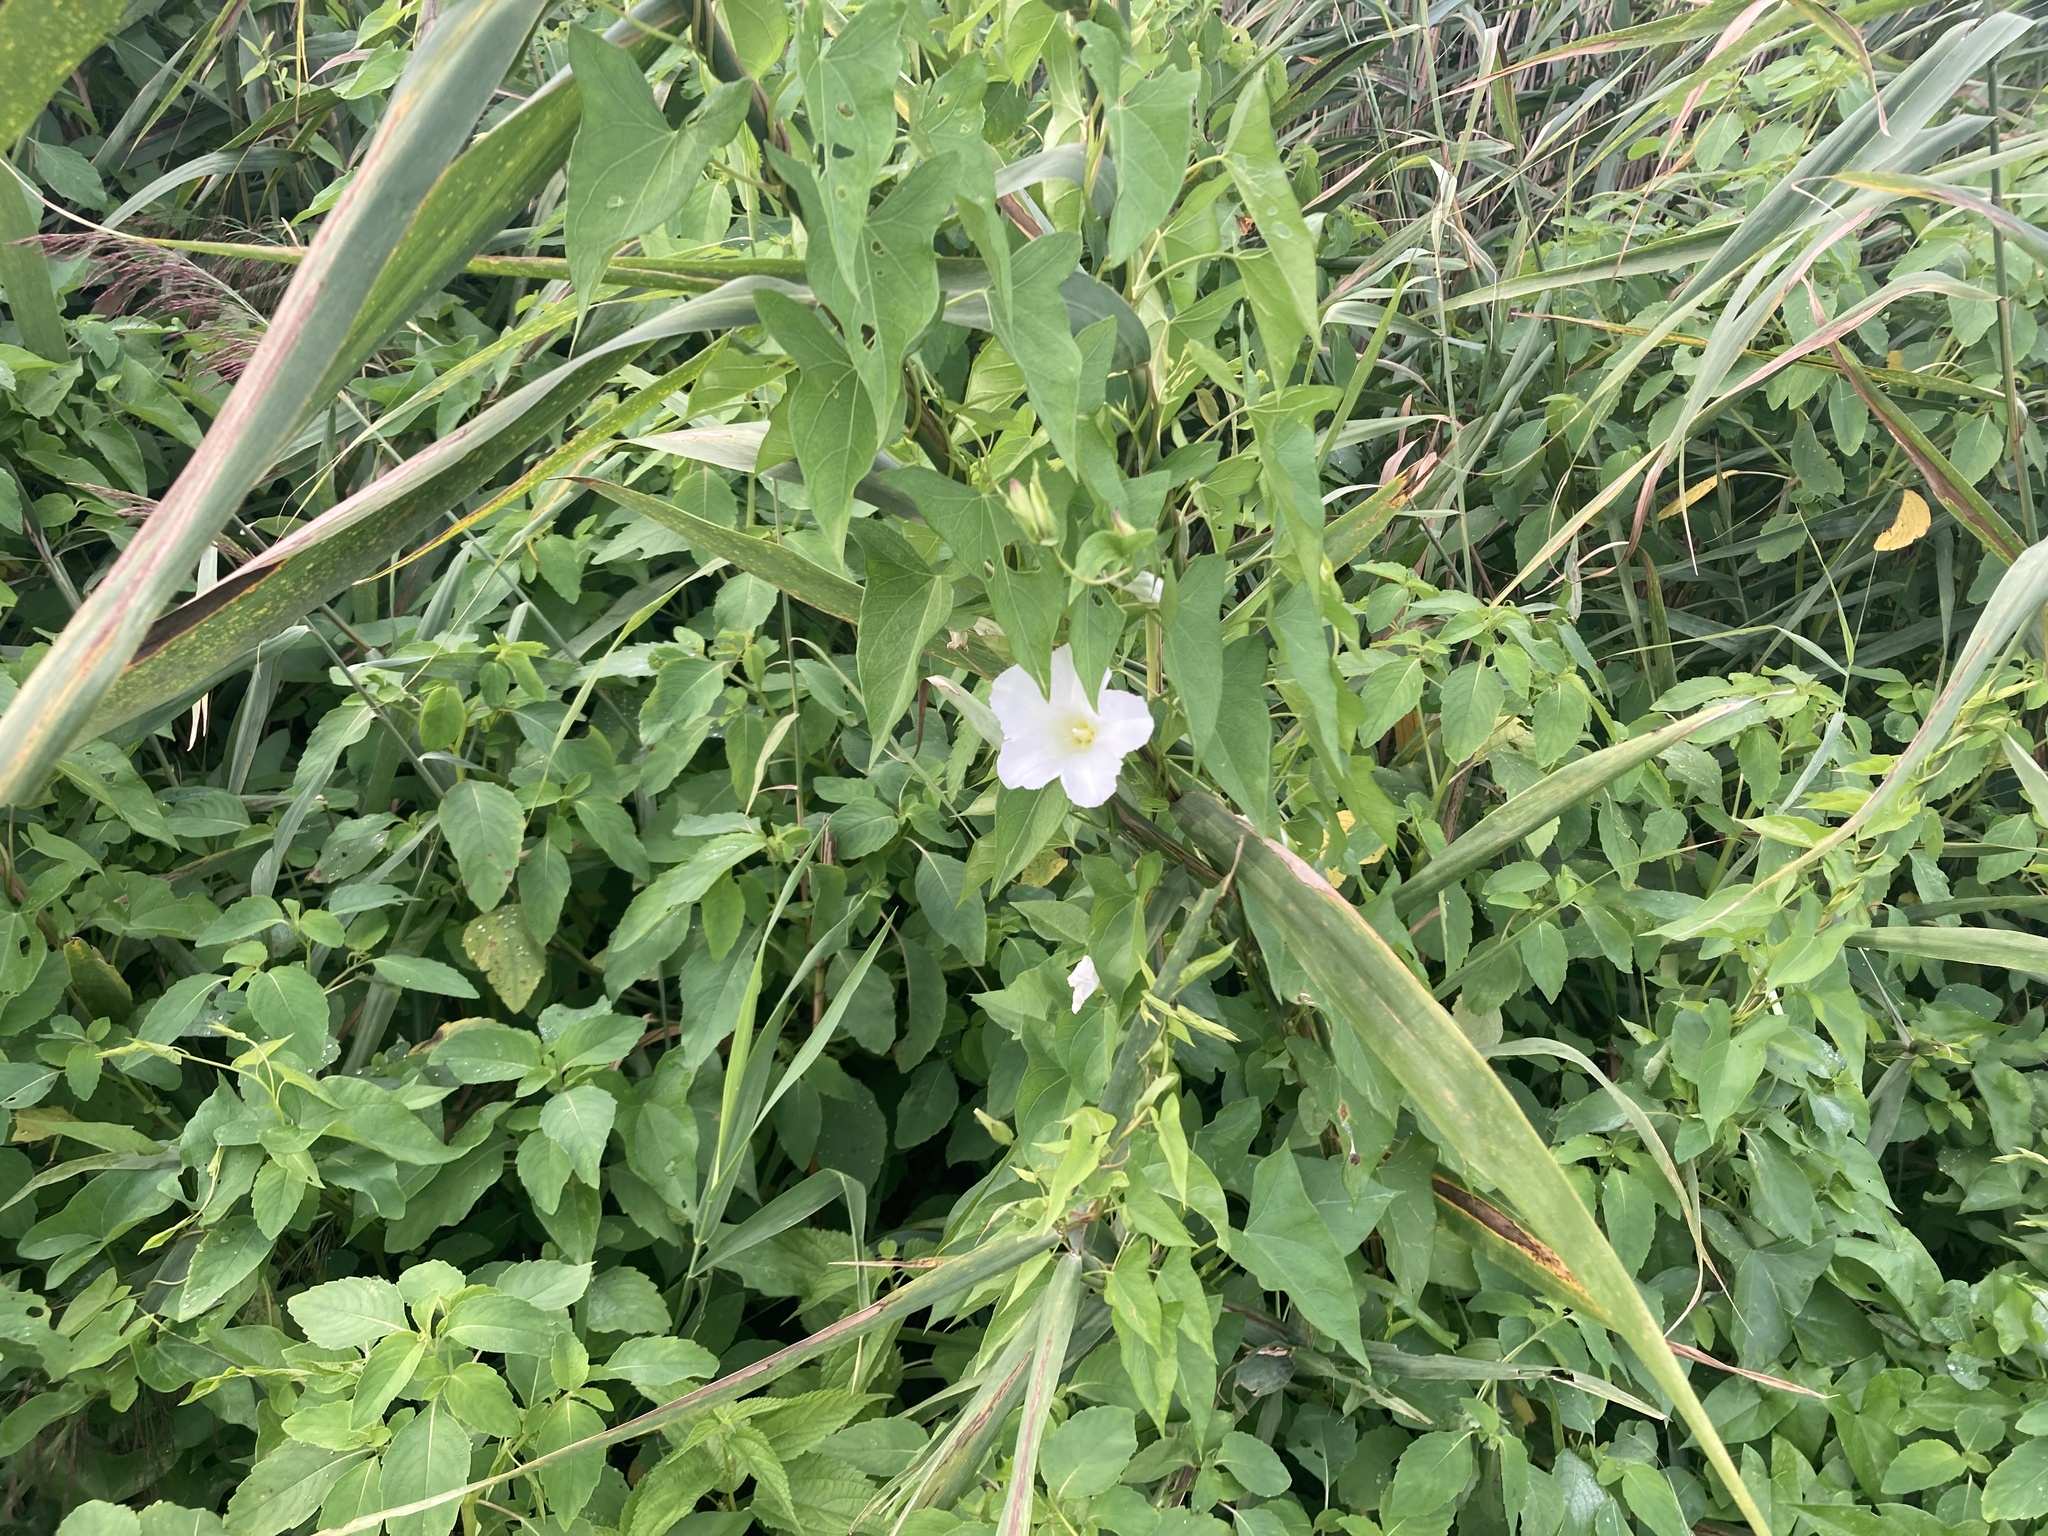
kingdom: Plantae
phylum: Tracheophyta
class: Magnoliopsida
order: Solanales
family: Convolvulaceae
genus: Calystegia
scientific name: Calystegia sepium
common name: Hedge bindweed
